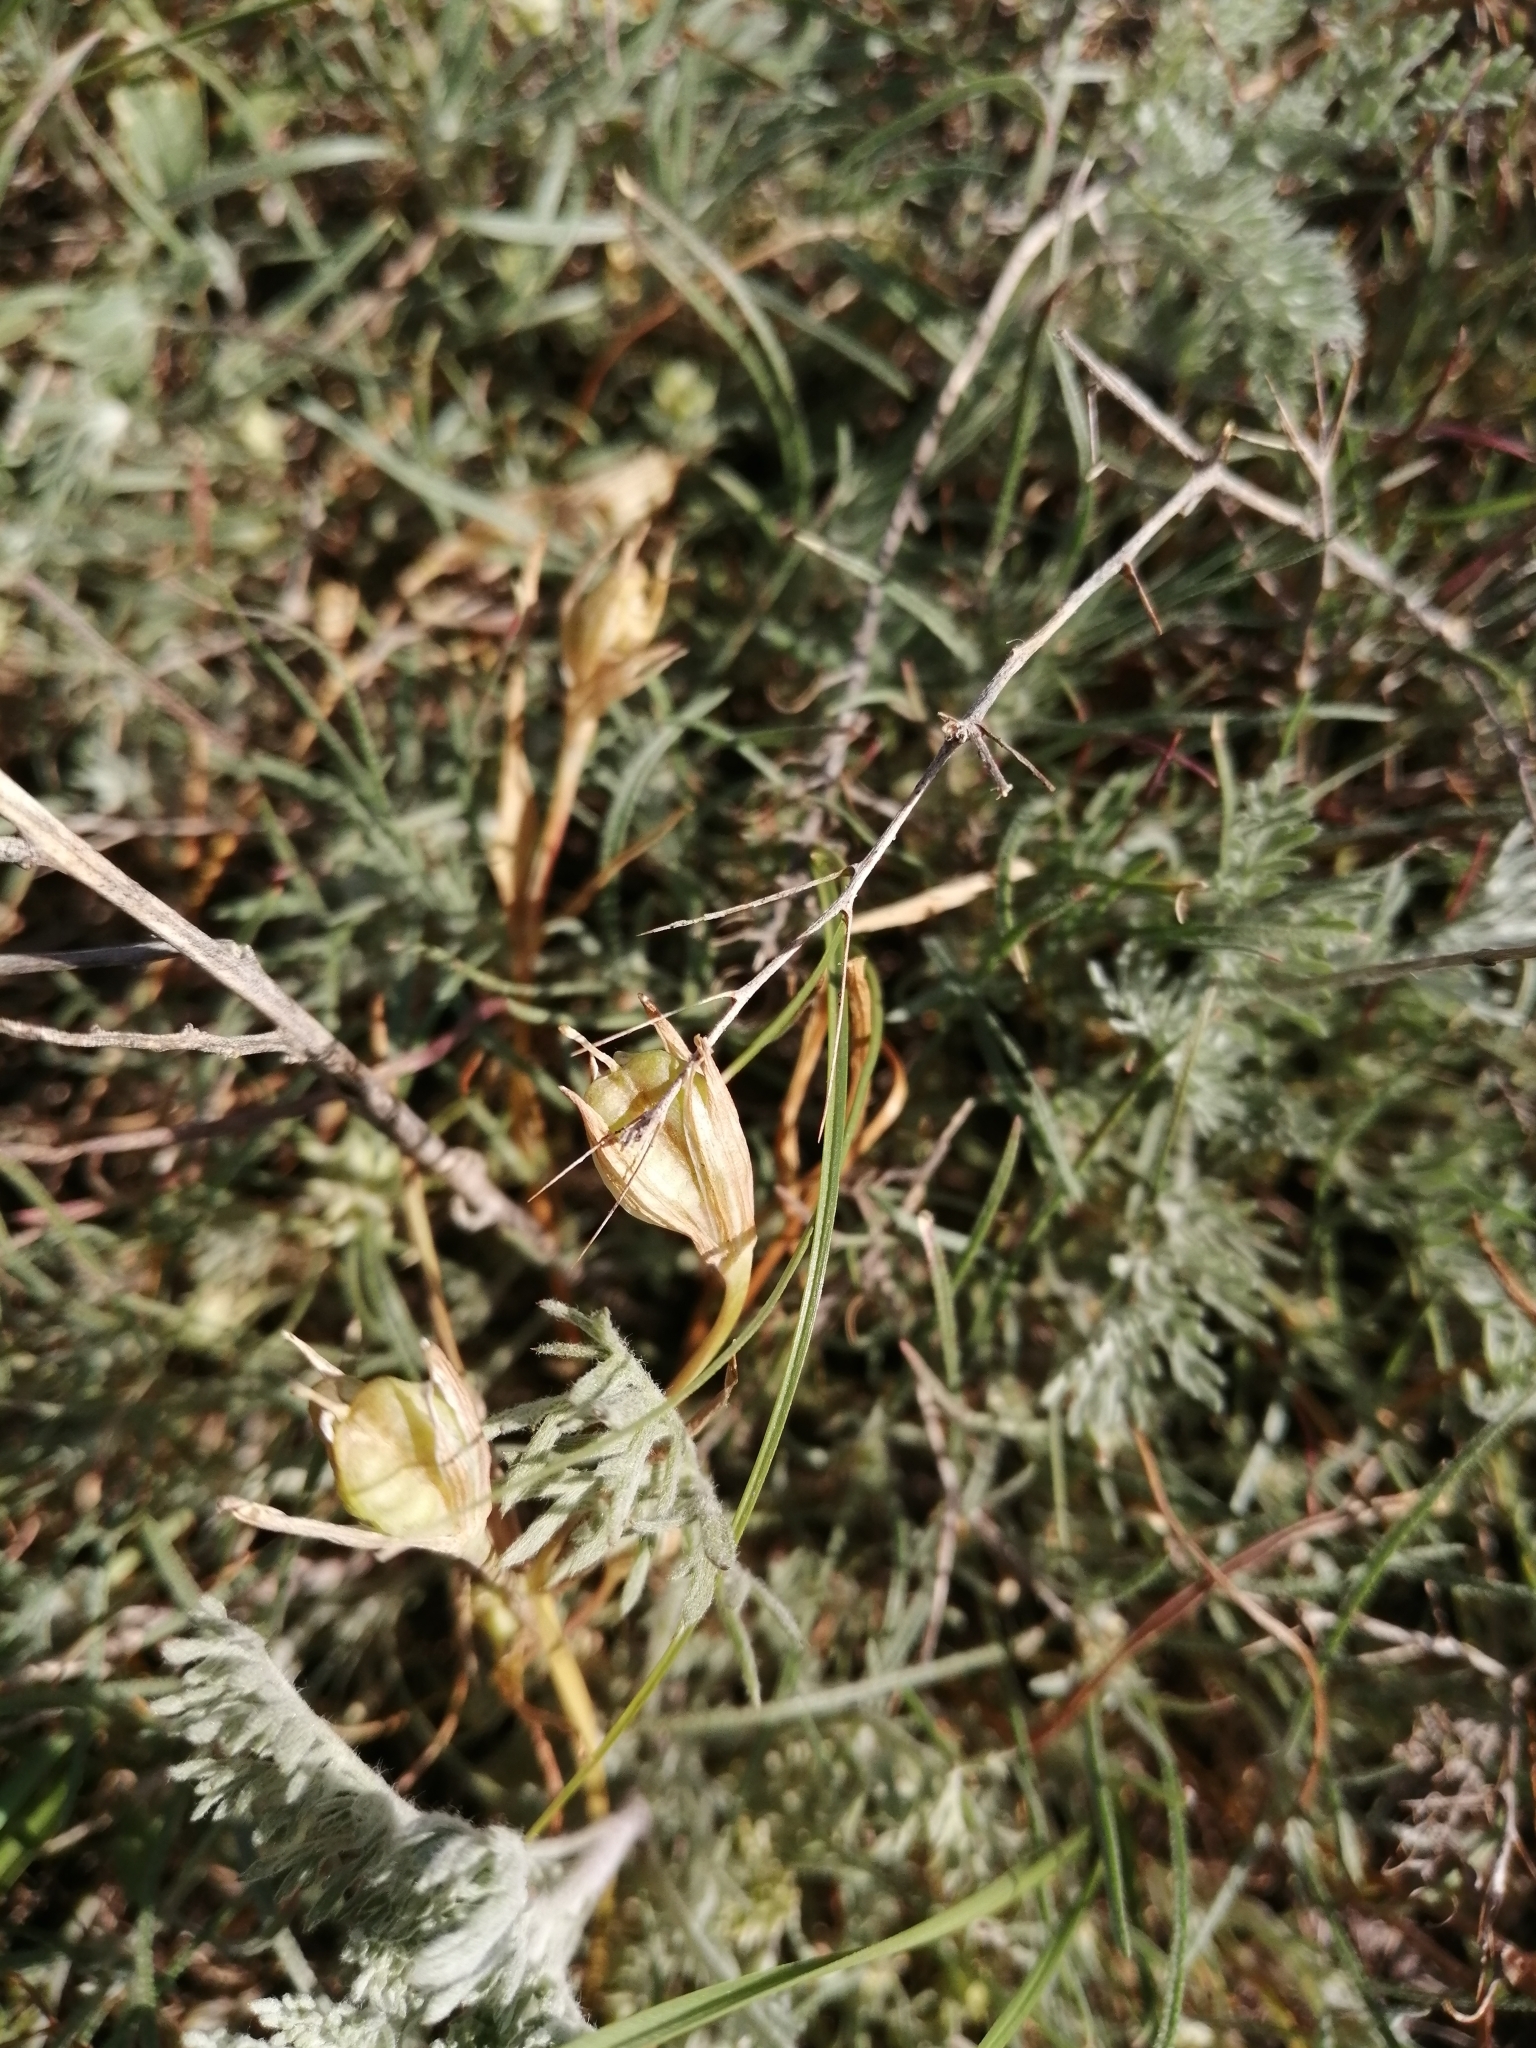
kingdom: Plantae
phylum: Tracheophyta
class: Liliopsida
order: Liliales
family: Liliaceae
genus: Gagea
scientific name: Gagea pusilla
